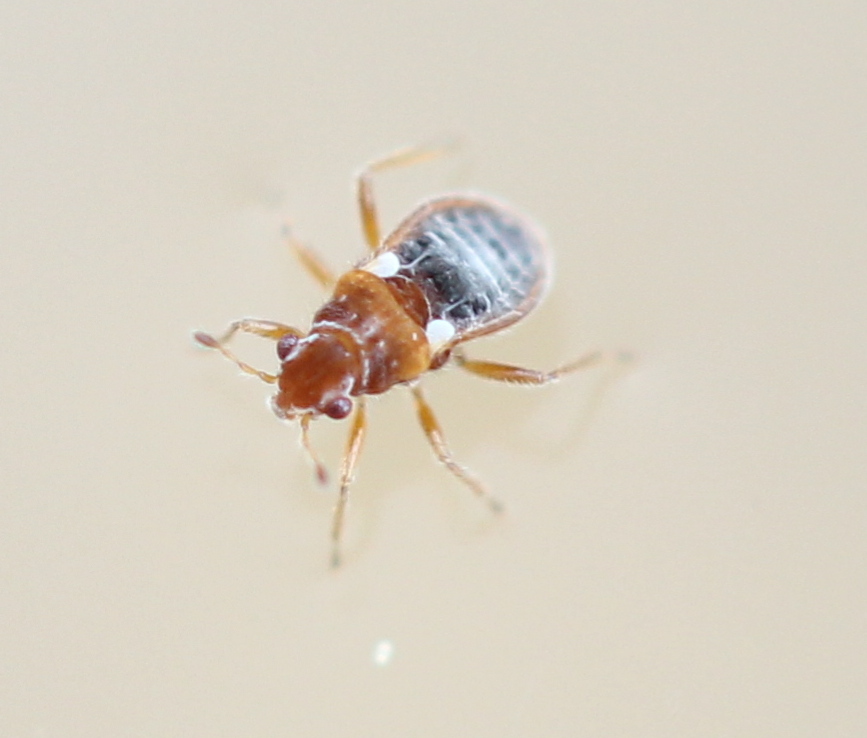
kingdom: Animalia
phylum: Arthropoda
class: Insecta
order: Hemiptera
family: Hebridae
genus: Merragata
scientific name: Merragata brunnea
